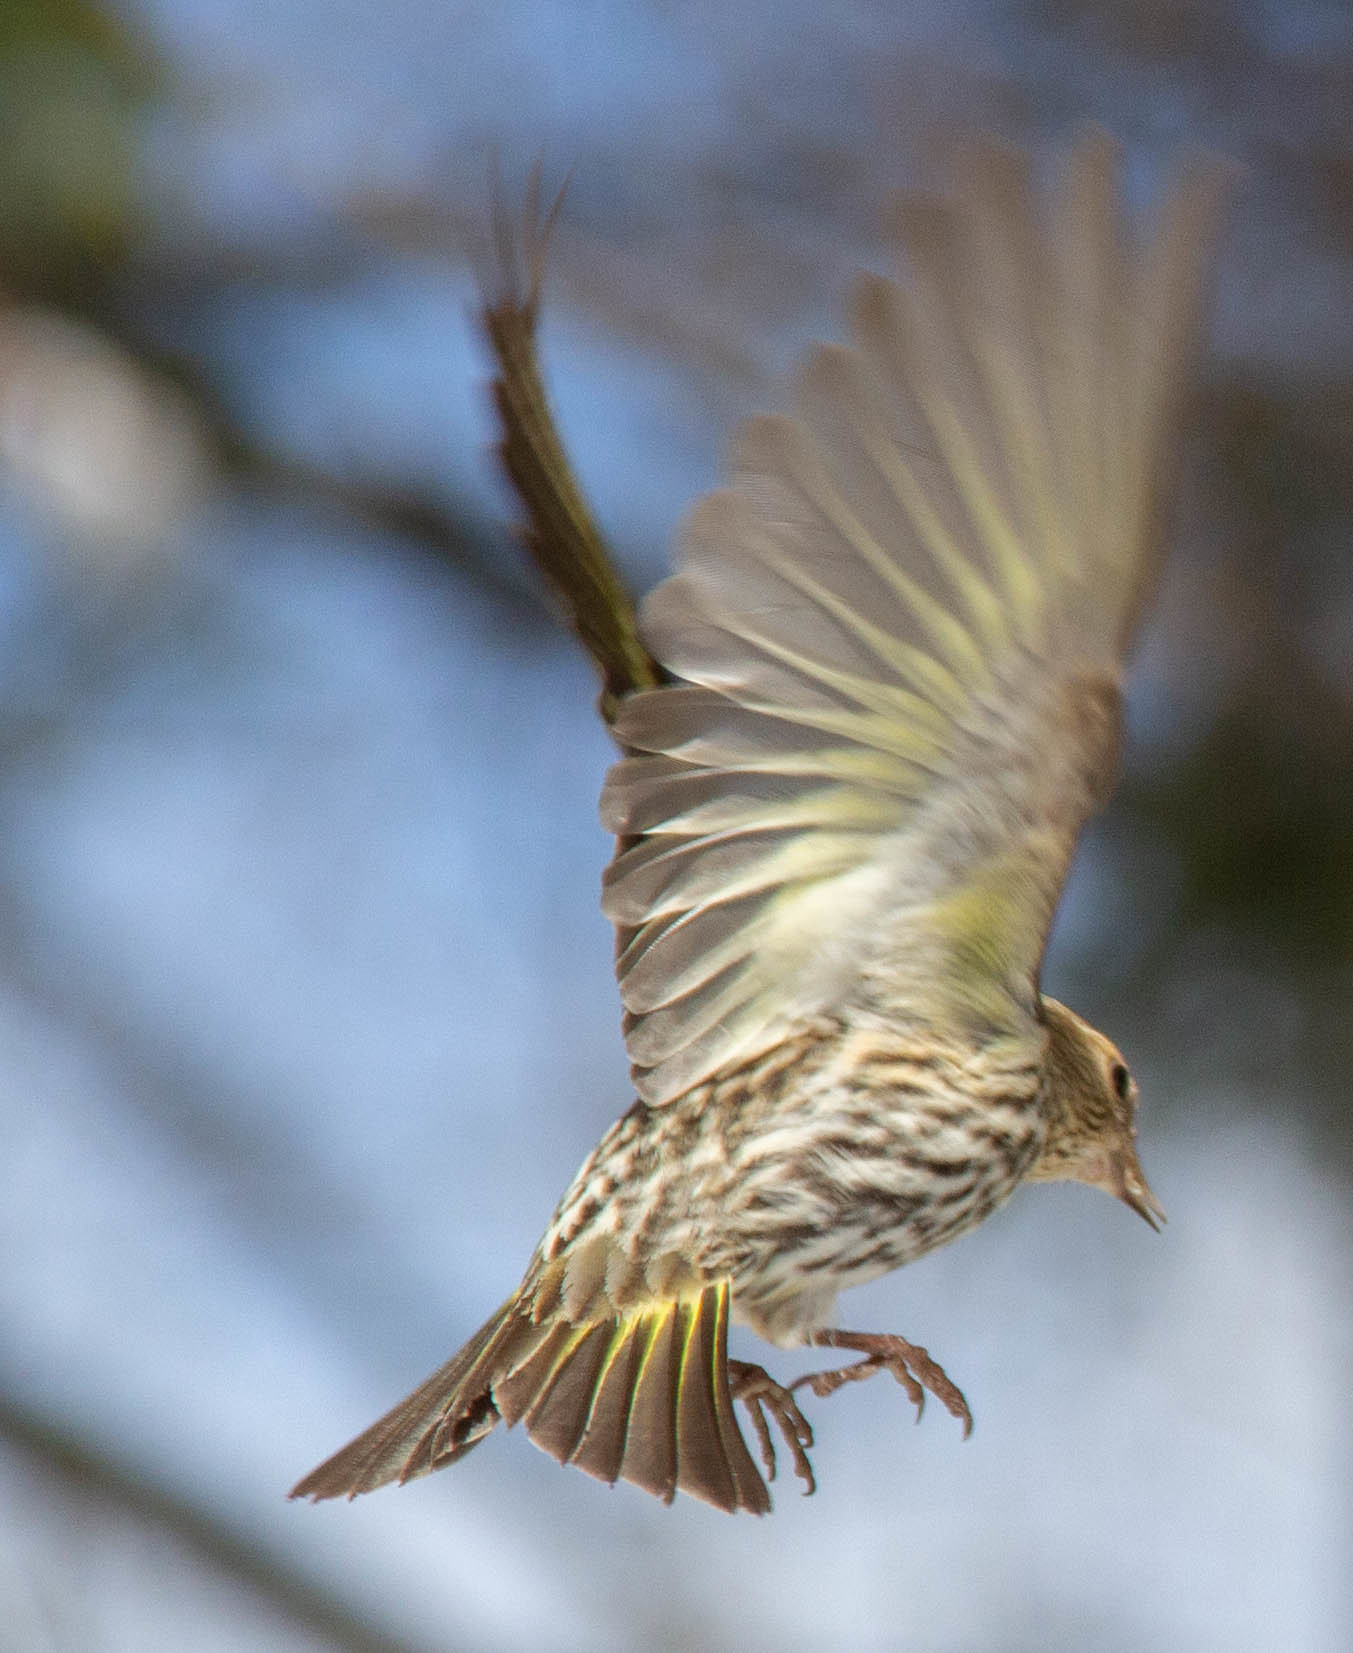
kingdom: Animalia
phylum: Chordata
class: Aves
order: Passeriformes
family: Fringillidae
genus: Spinus
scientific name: Spinus pinus
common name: Pine siskin
